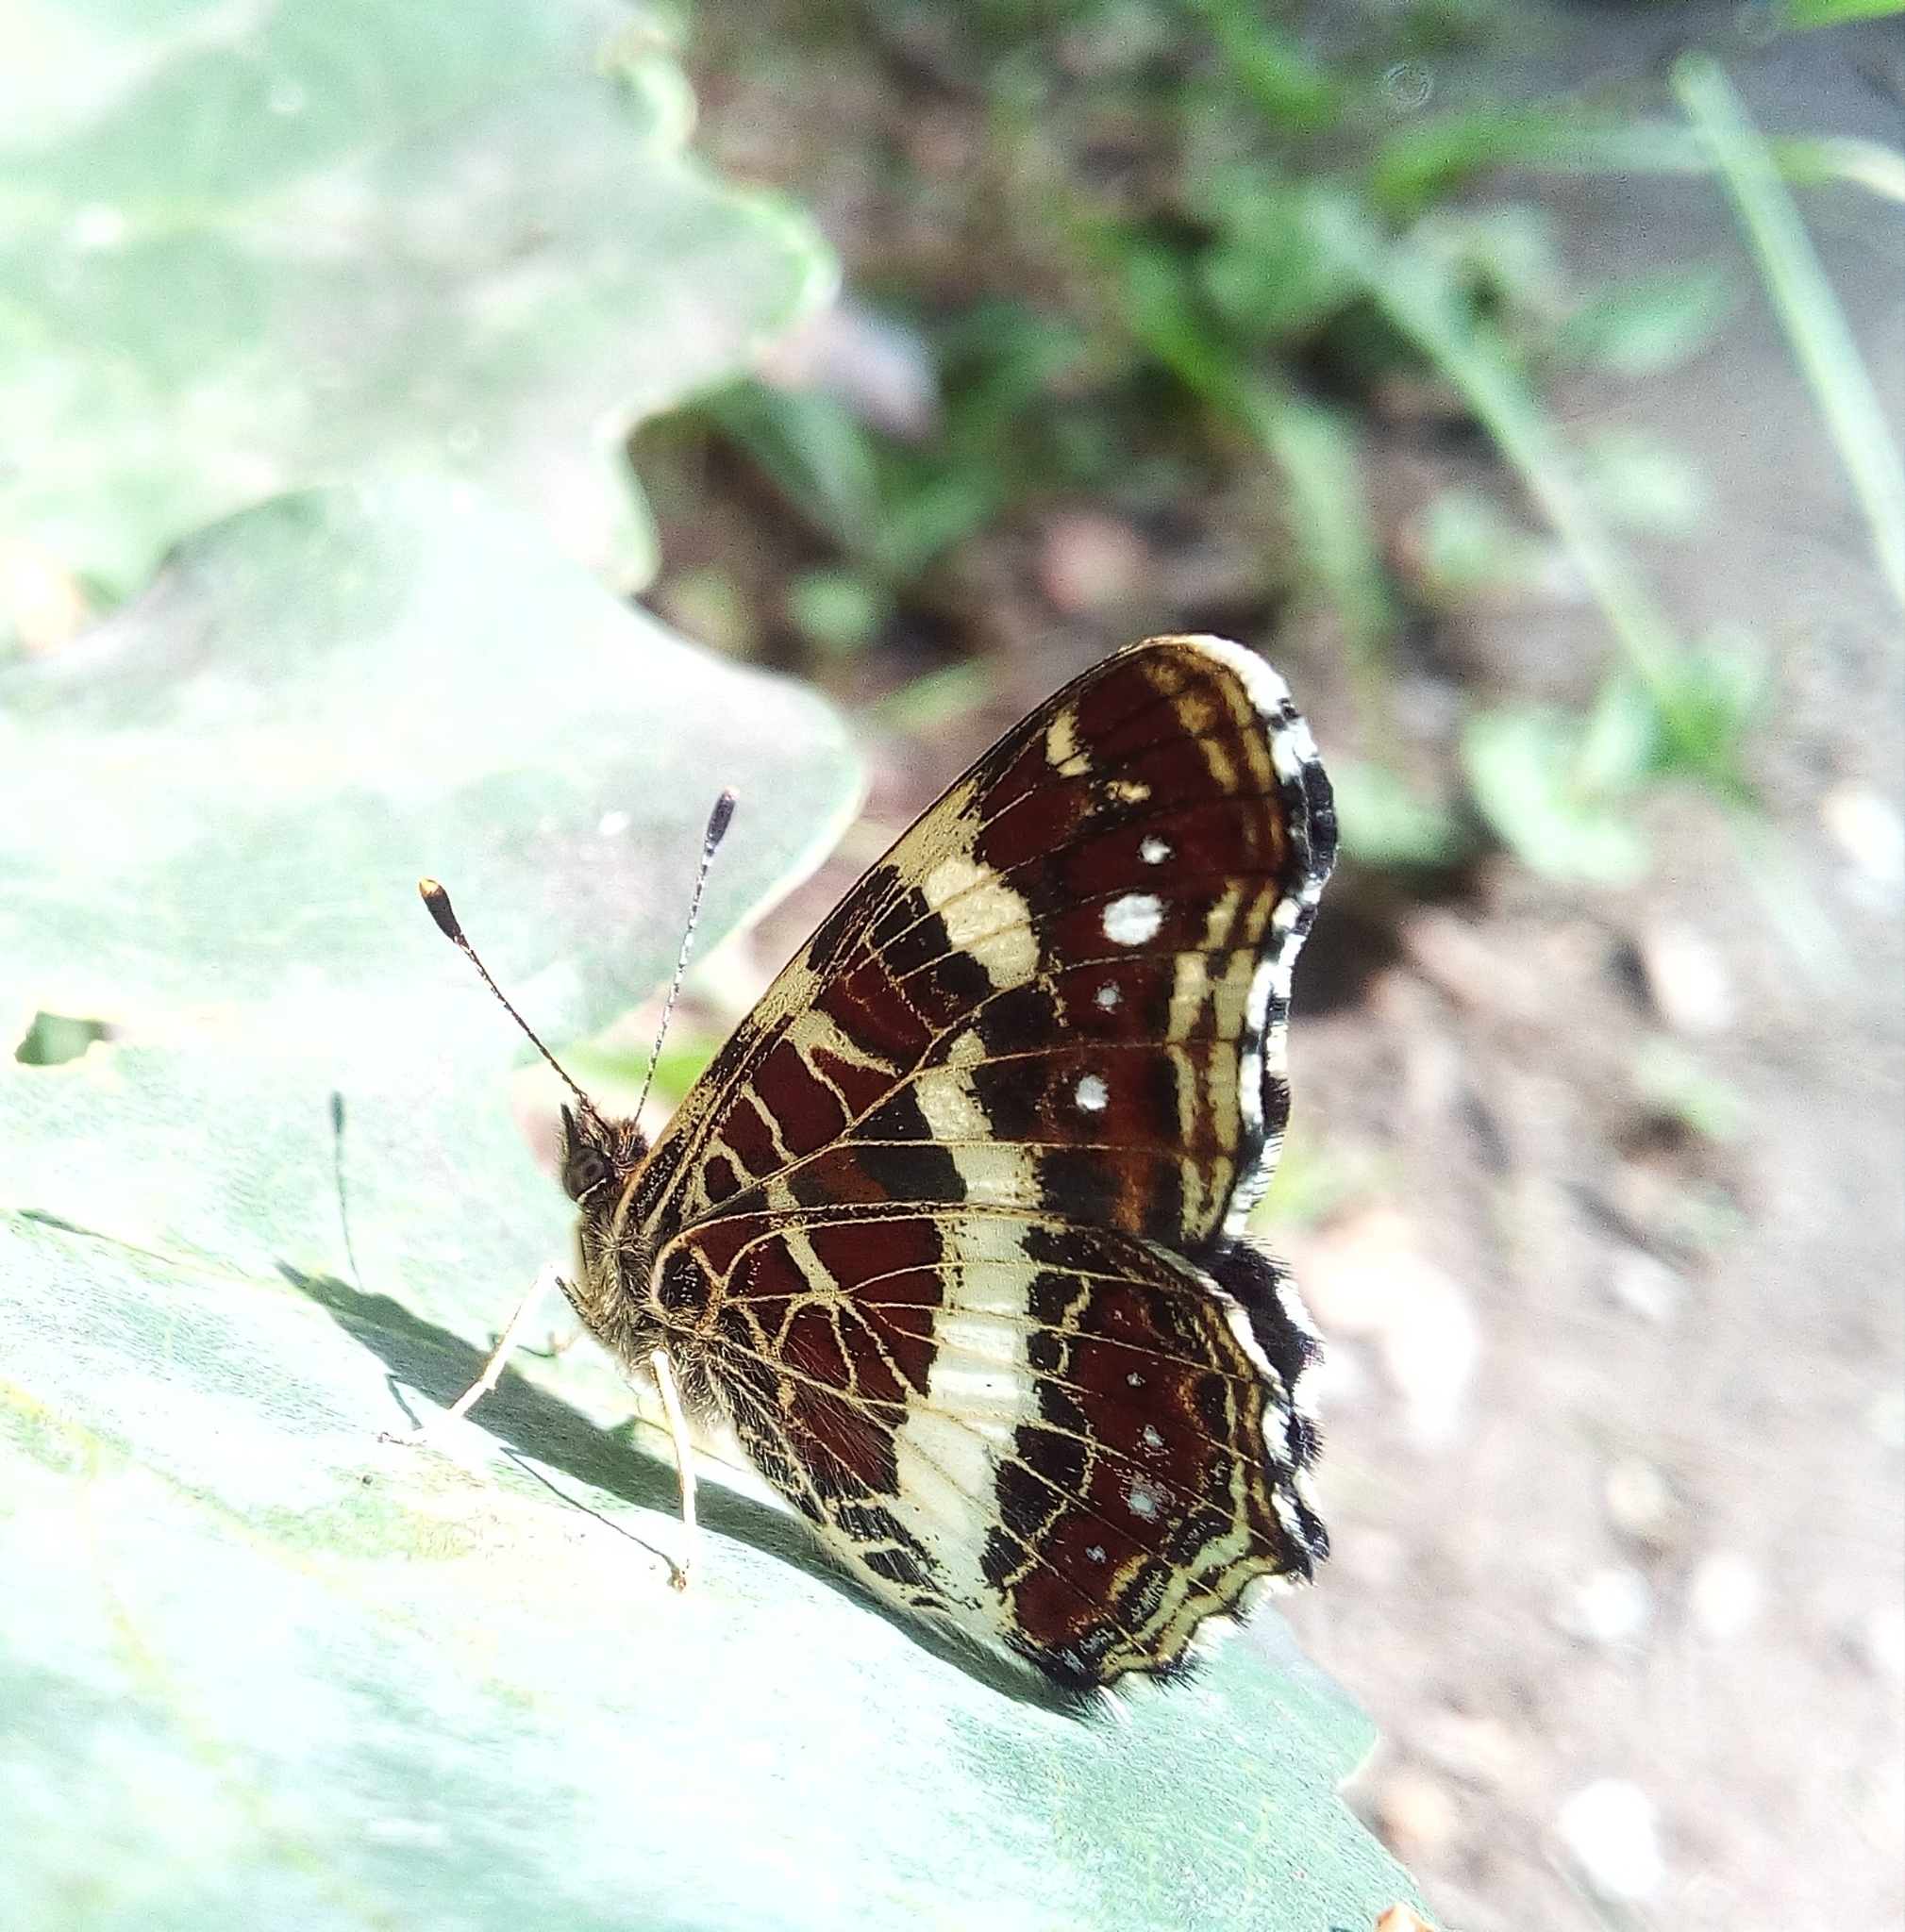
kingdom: Animalia
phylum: Arthropoda
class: Insecta
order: Lepidoptera
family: Nymphalidae
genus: Araschnia
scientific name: Araschnia levana
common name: Map butterfly
